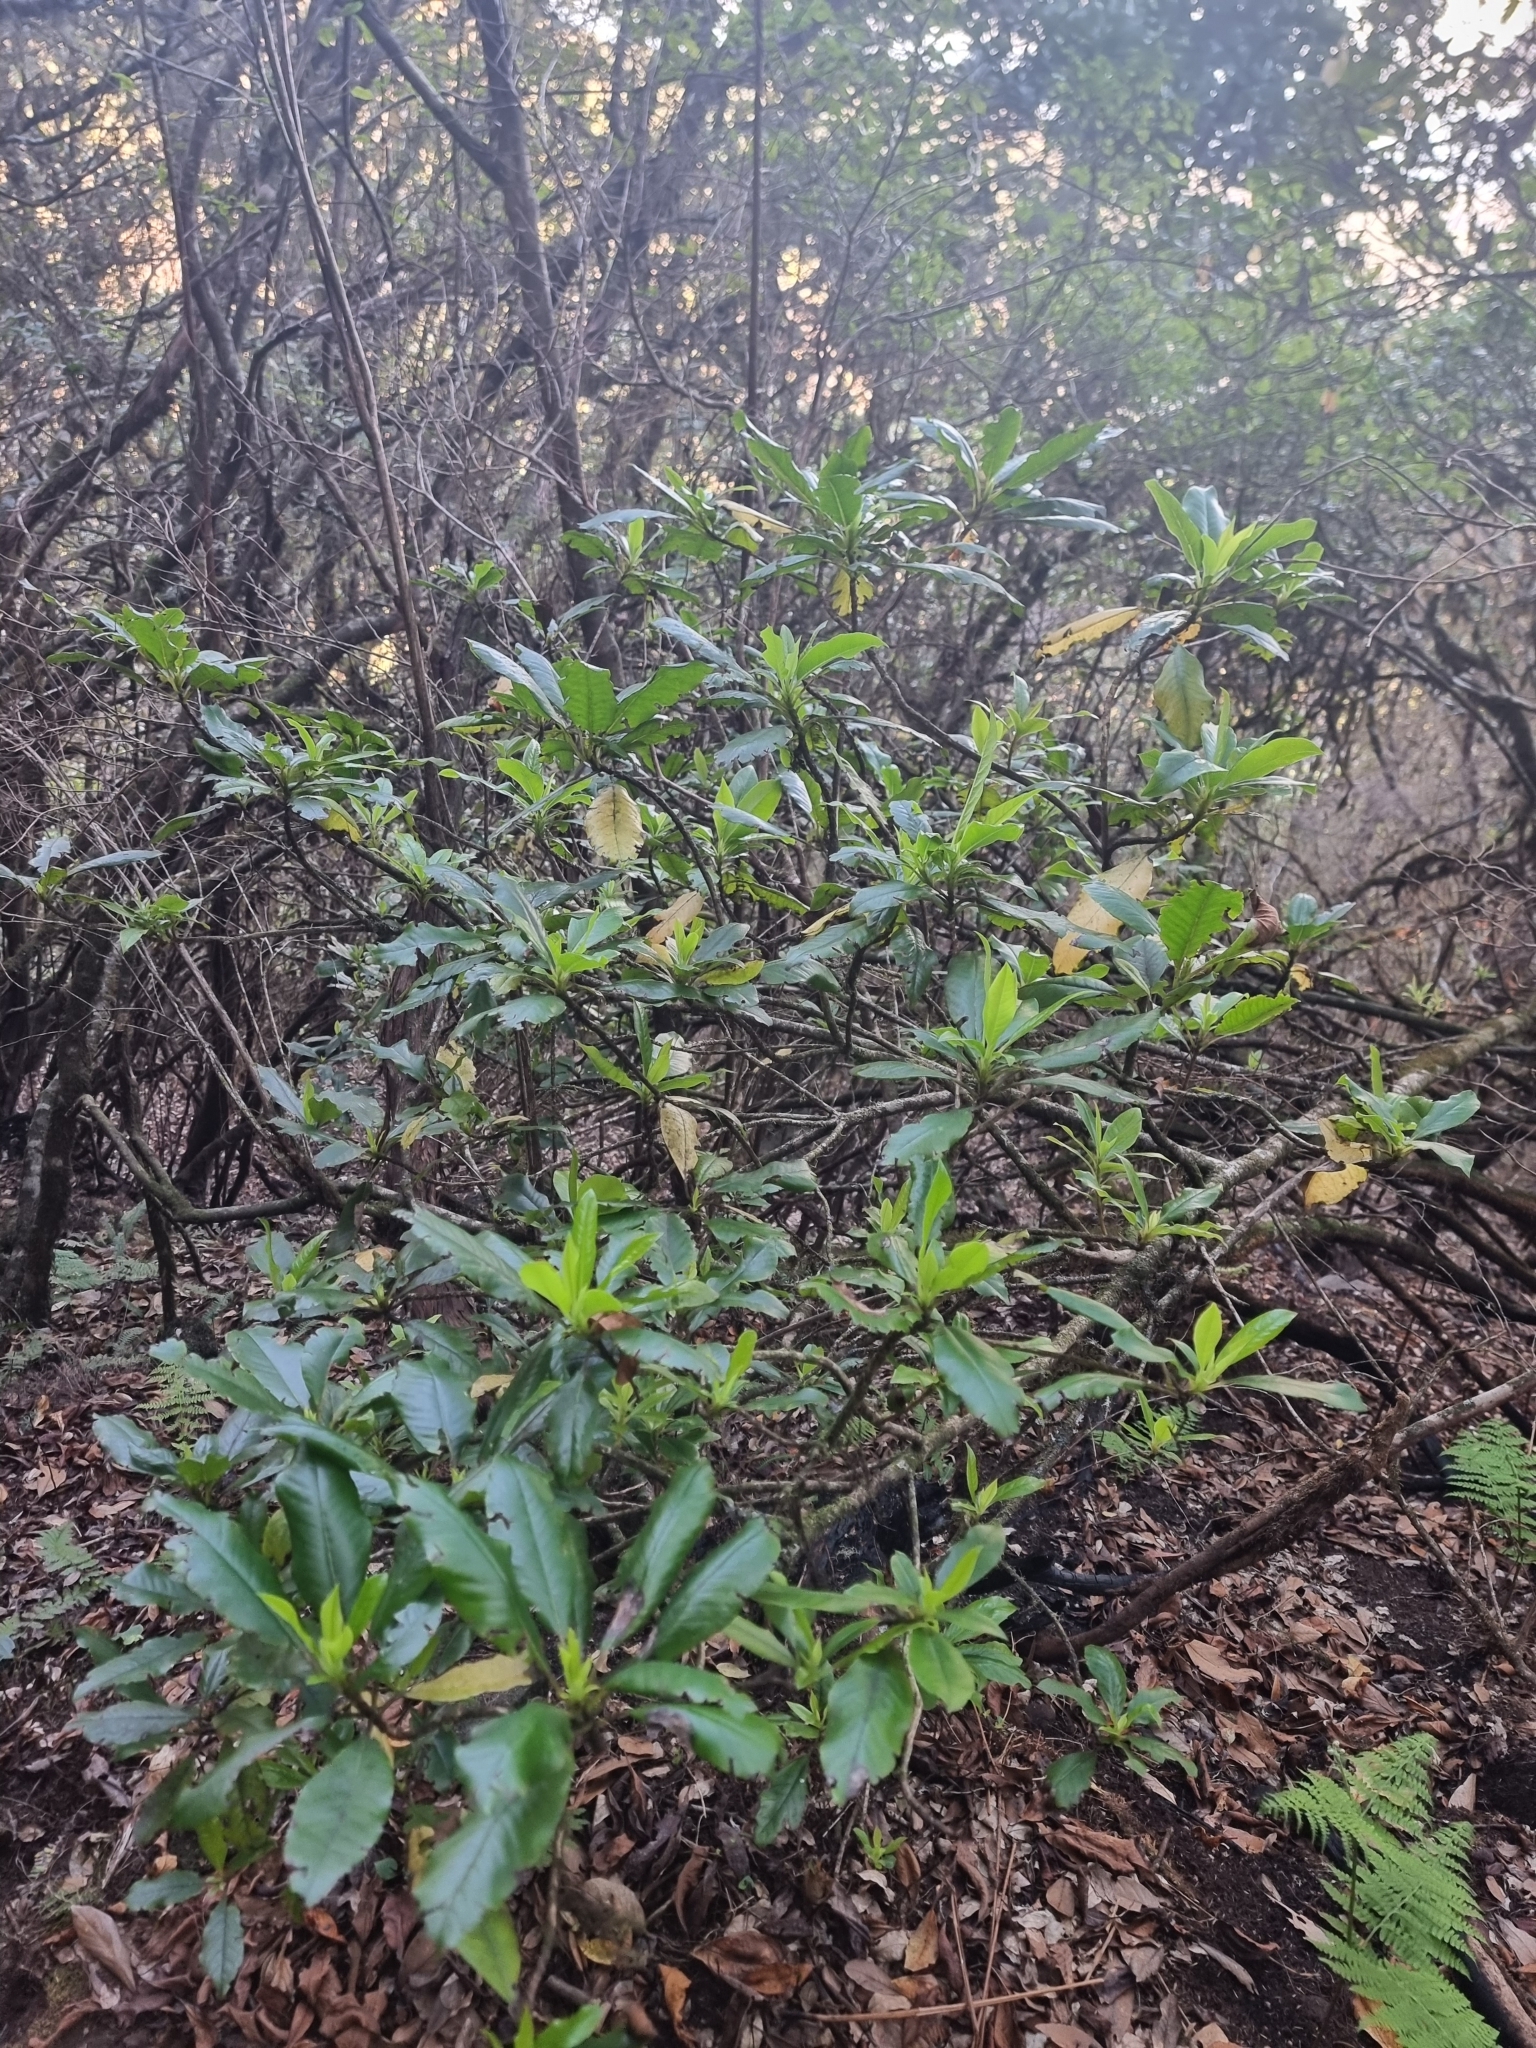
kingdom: Plantae
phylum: Tracheophyta
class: Magnoliopsida
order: Ericales
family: Clethraceae
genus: Clethra
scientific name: Clethra arborea
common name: Lily-of-the-valley-tree
